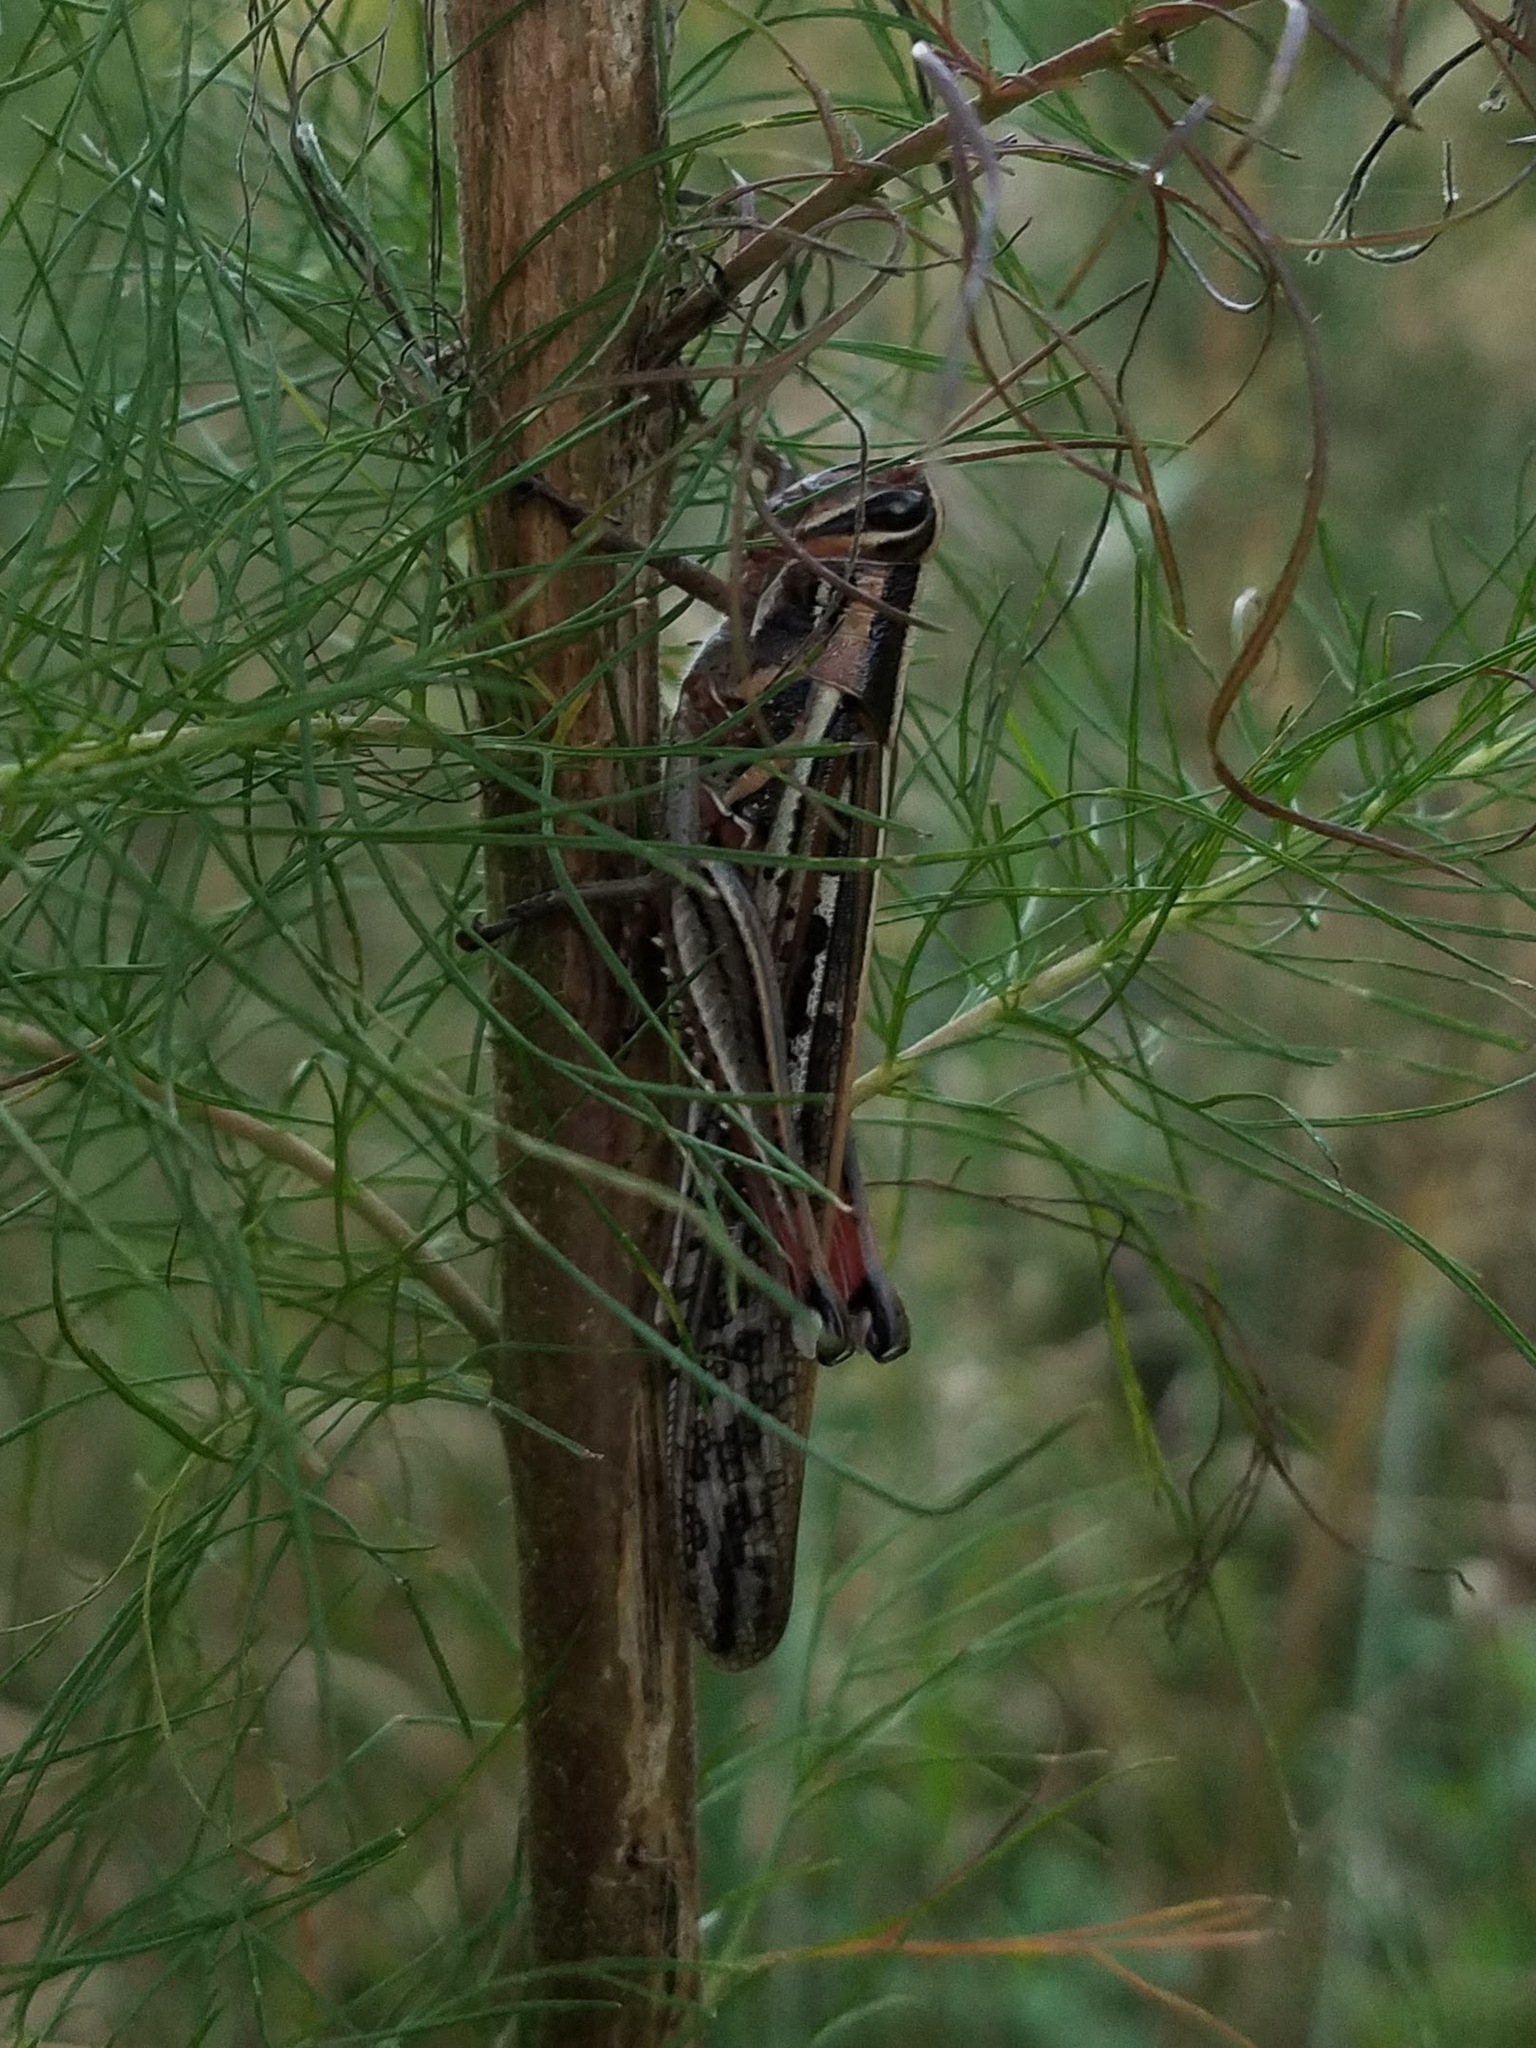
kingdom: Animalia
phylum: Arthropoda
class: Insecta
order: Orthoptera
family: Acrididae
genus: Schistocerca
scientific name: Schistocerca americana
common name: American bird locust
